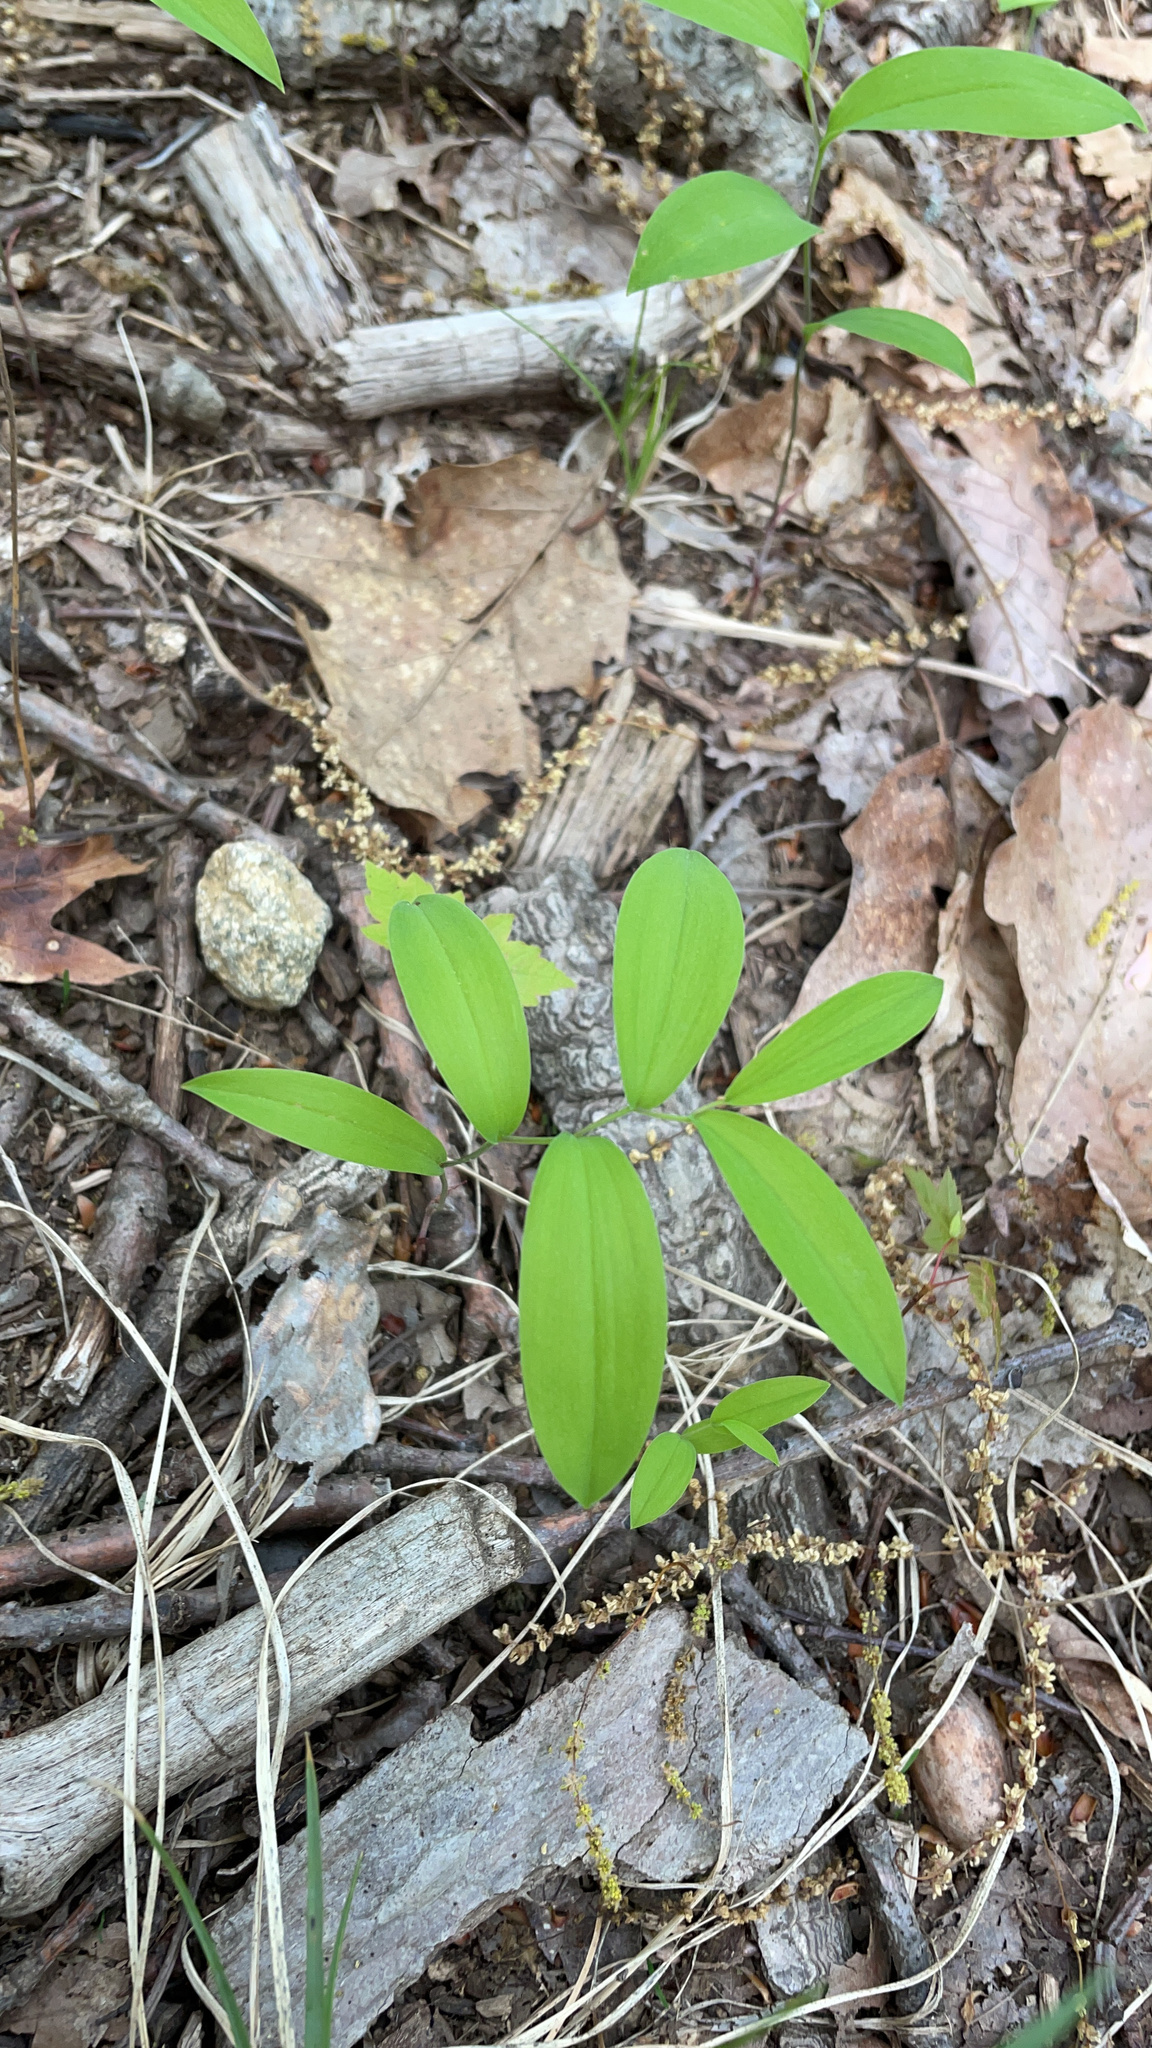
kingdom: Plantae
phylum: Tracheophyta
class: Liliopsida
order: Liliales
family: Colchicaceae
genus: Uvularia
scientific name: Uvularia sessilifolia
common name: Straw-lily
